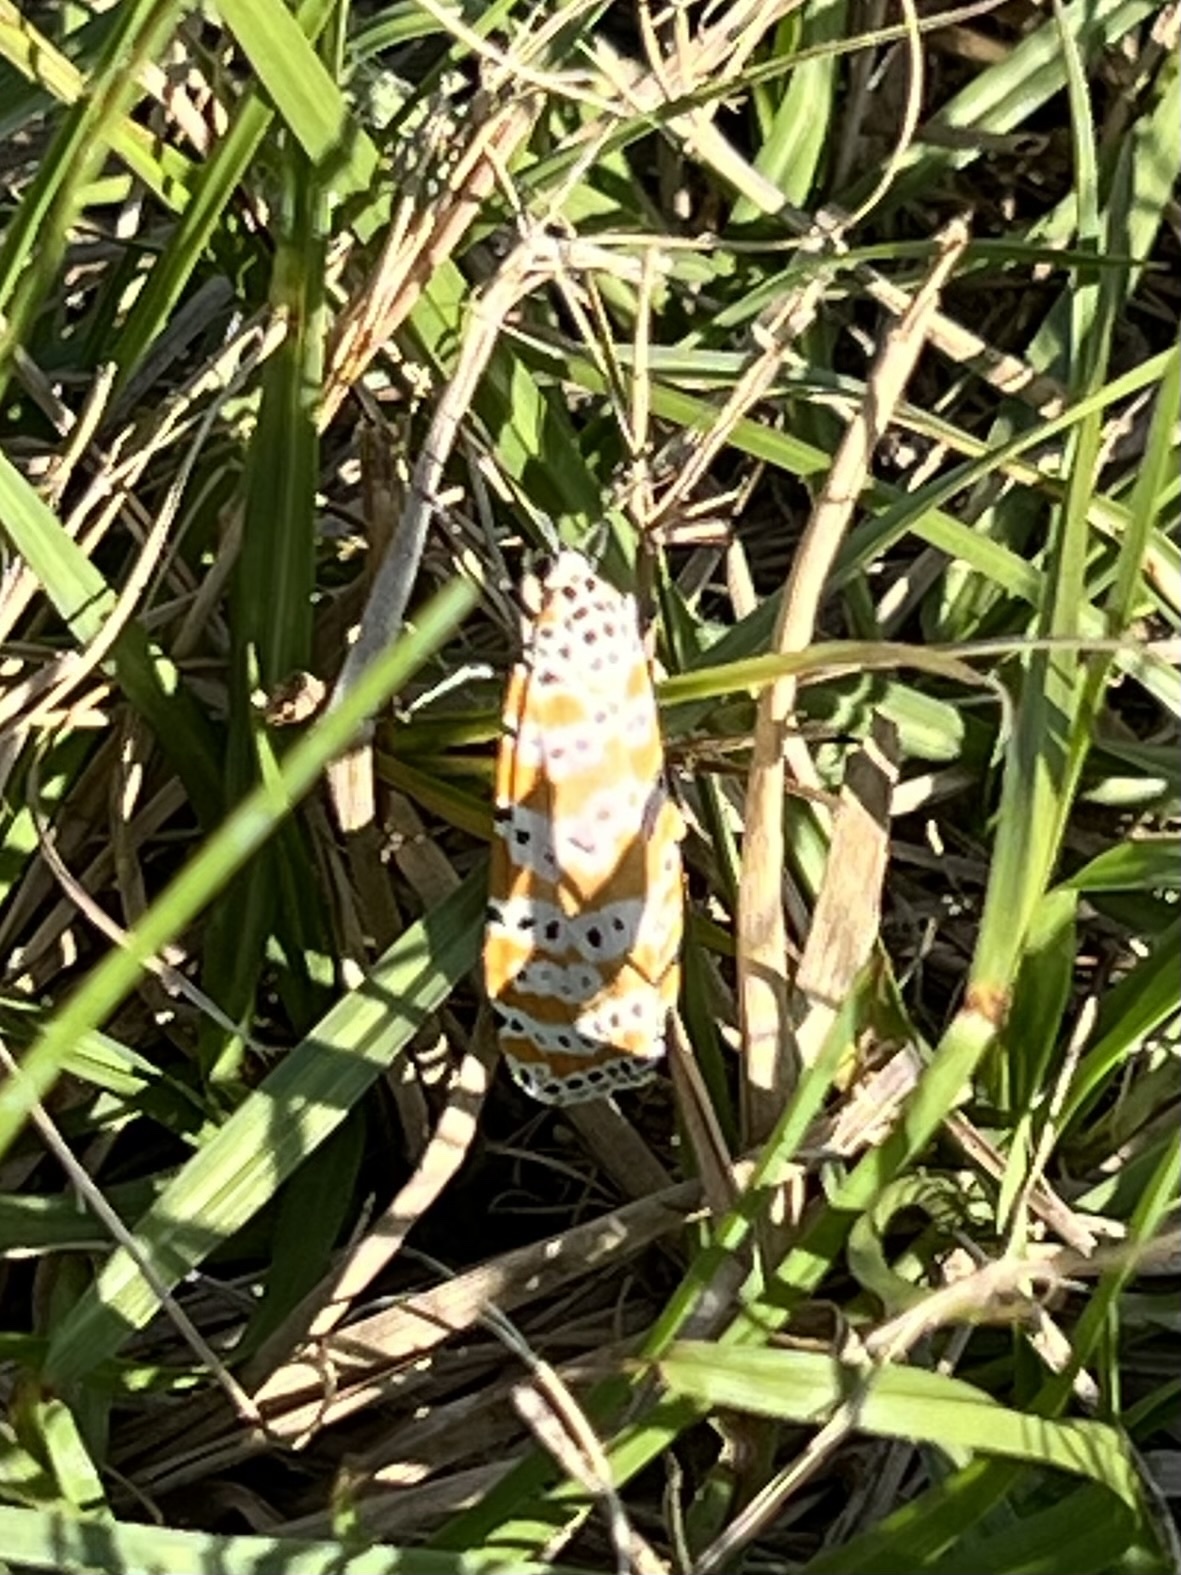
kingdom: Animalia
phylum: Arthropoda
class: Insecta
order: Lepidoptera
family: Erebidae
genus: Utetheisa
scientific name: Utetheisa ornatrix
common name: Beautiful utetheisa
